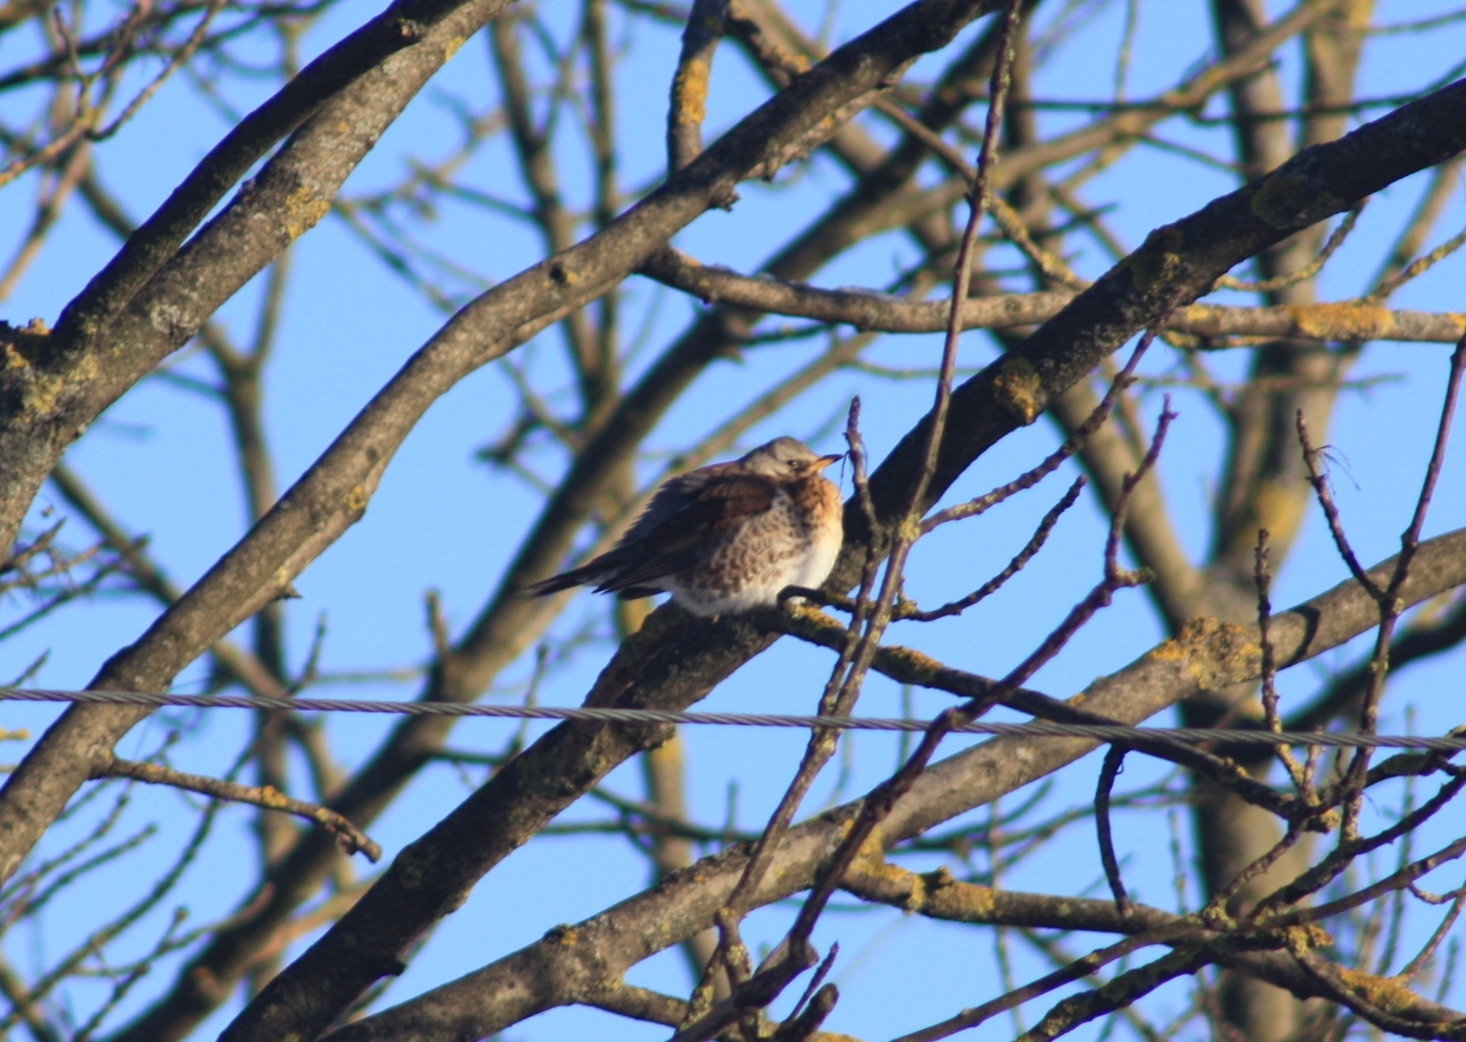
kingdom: Animalia
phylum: Chordata
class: Aves
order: Passeriformes
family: Turdidae
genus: Turdus
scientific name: Turdus pilaris
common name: Fieldfare
